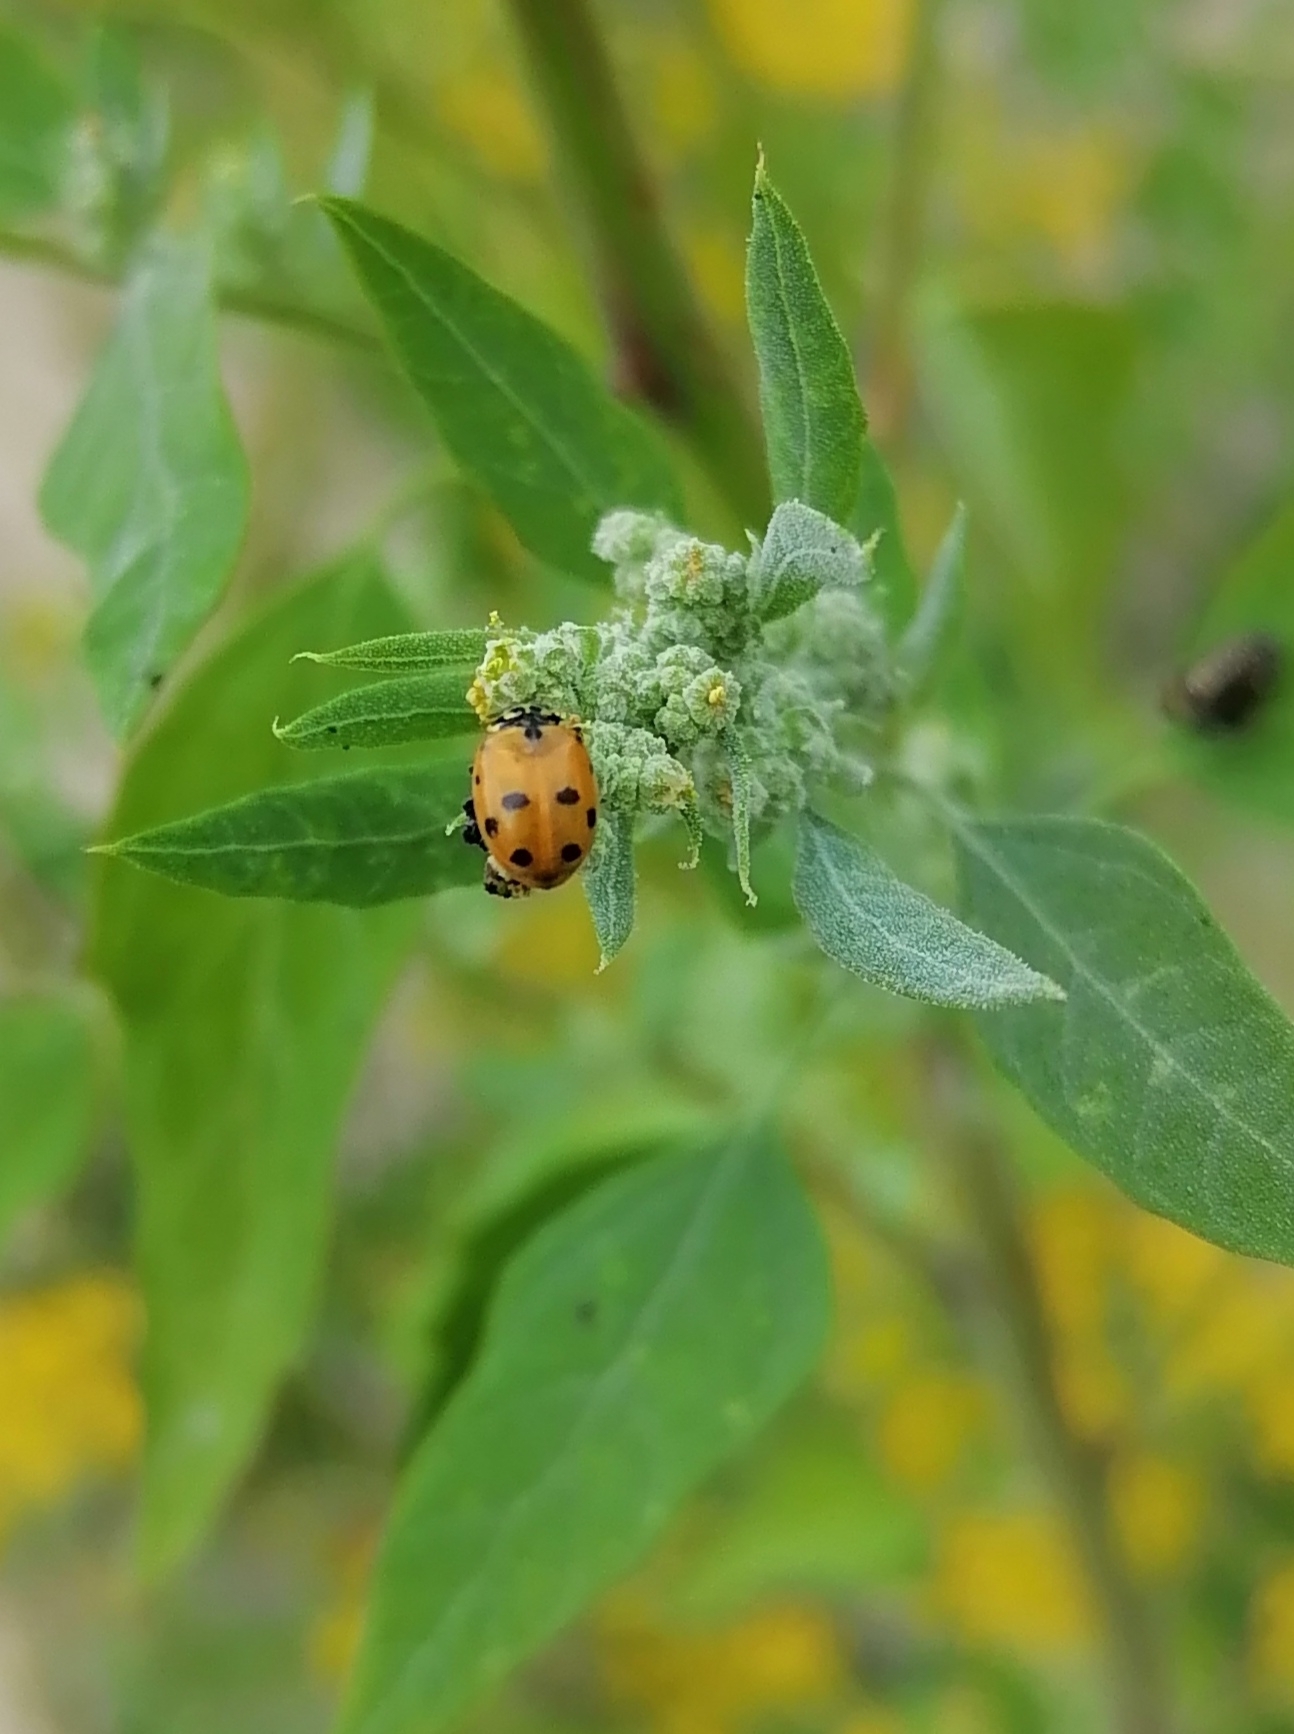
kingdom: Animalia
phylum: Arthropoda
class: Insecta
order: Coleoptera
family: Coccinellidae
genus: Hippodamia
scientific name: Hippodamia variegata
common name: Ladybird beetle
